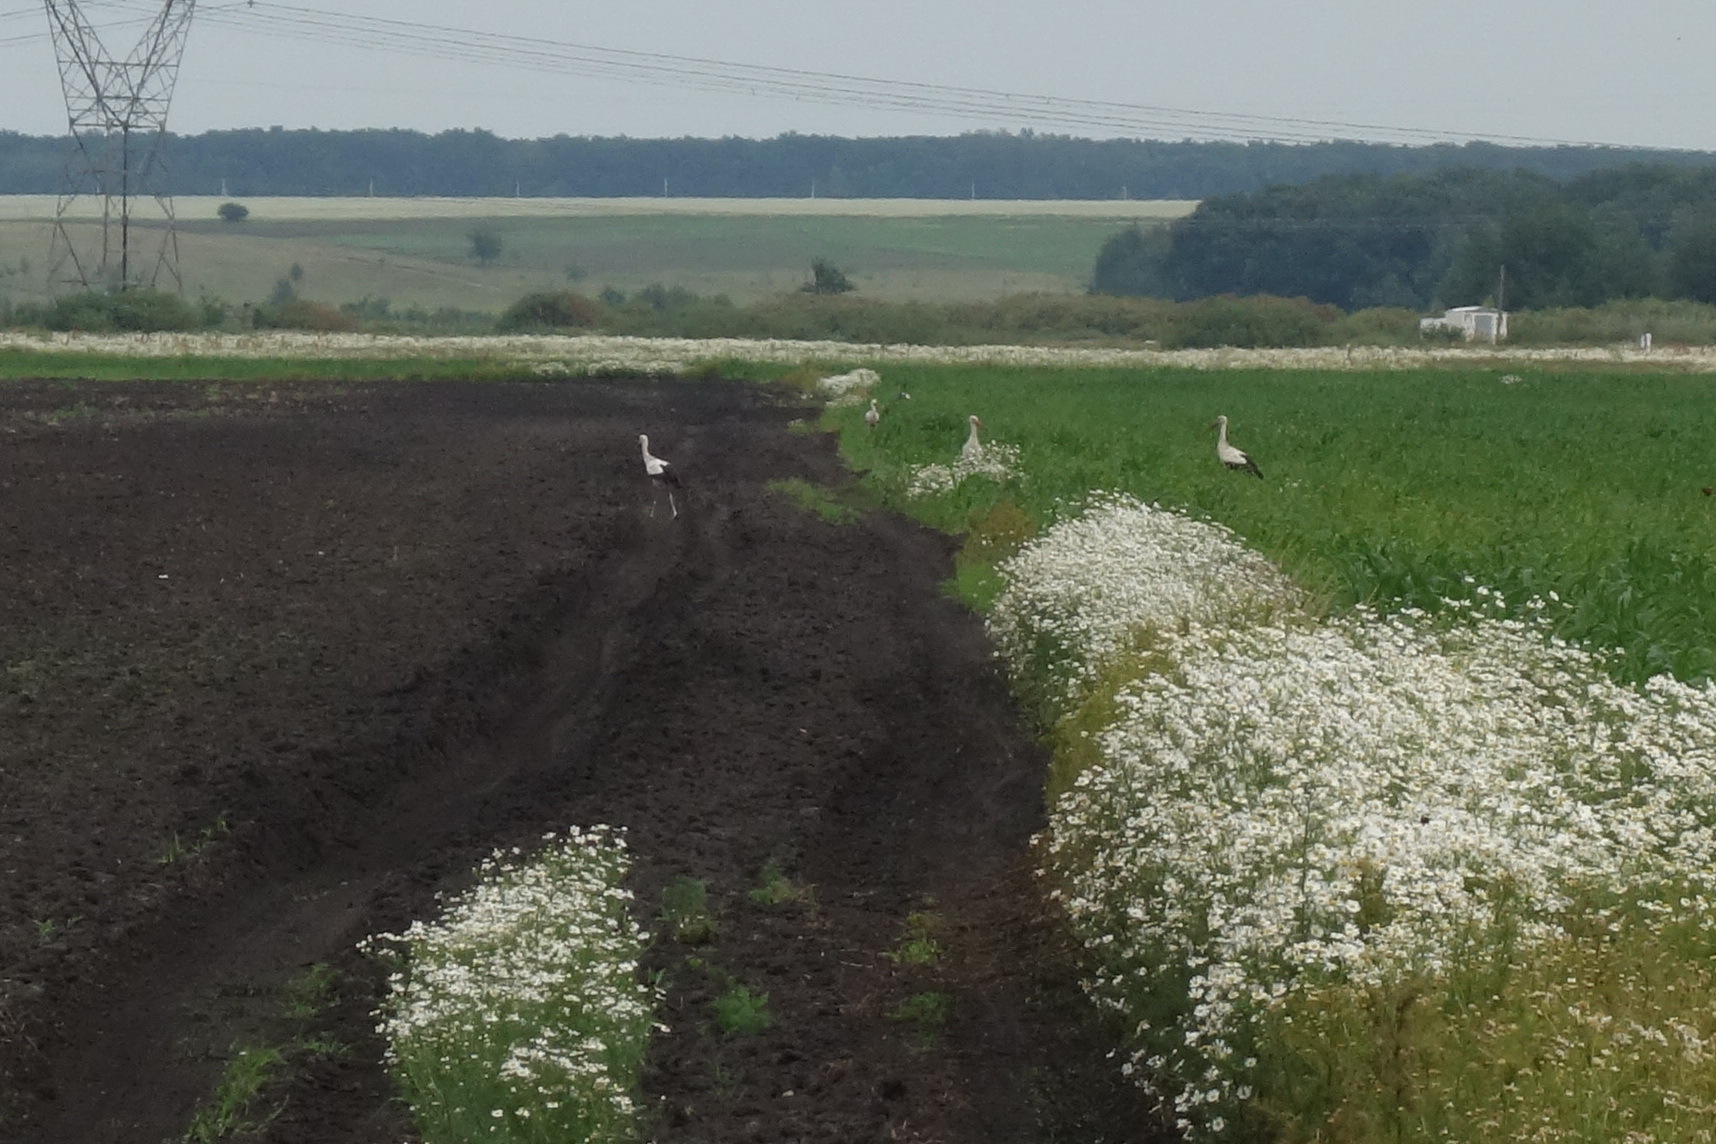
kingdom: Animalia
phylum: Chordata
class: Aves
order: Ciconiiformes
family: Ciconiidae
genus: Ciconia
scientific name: Ciconia ciconia
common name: White stork
